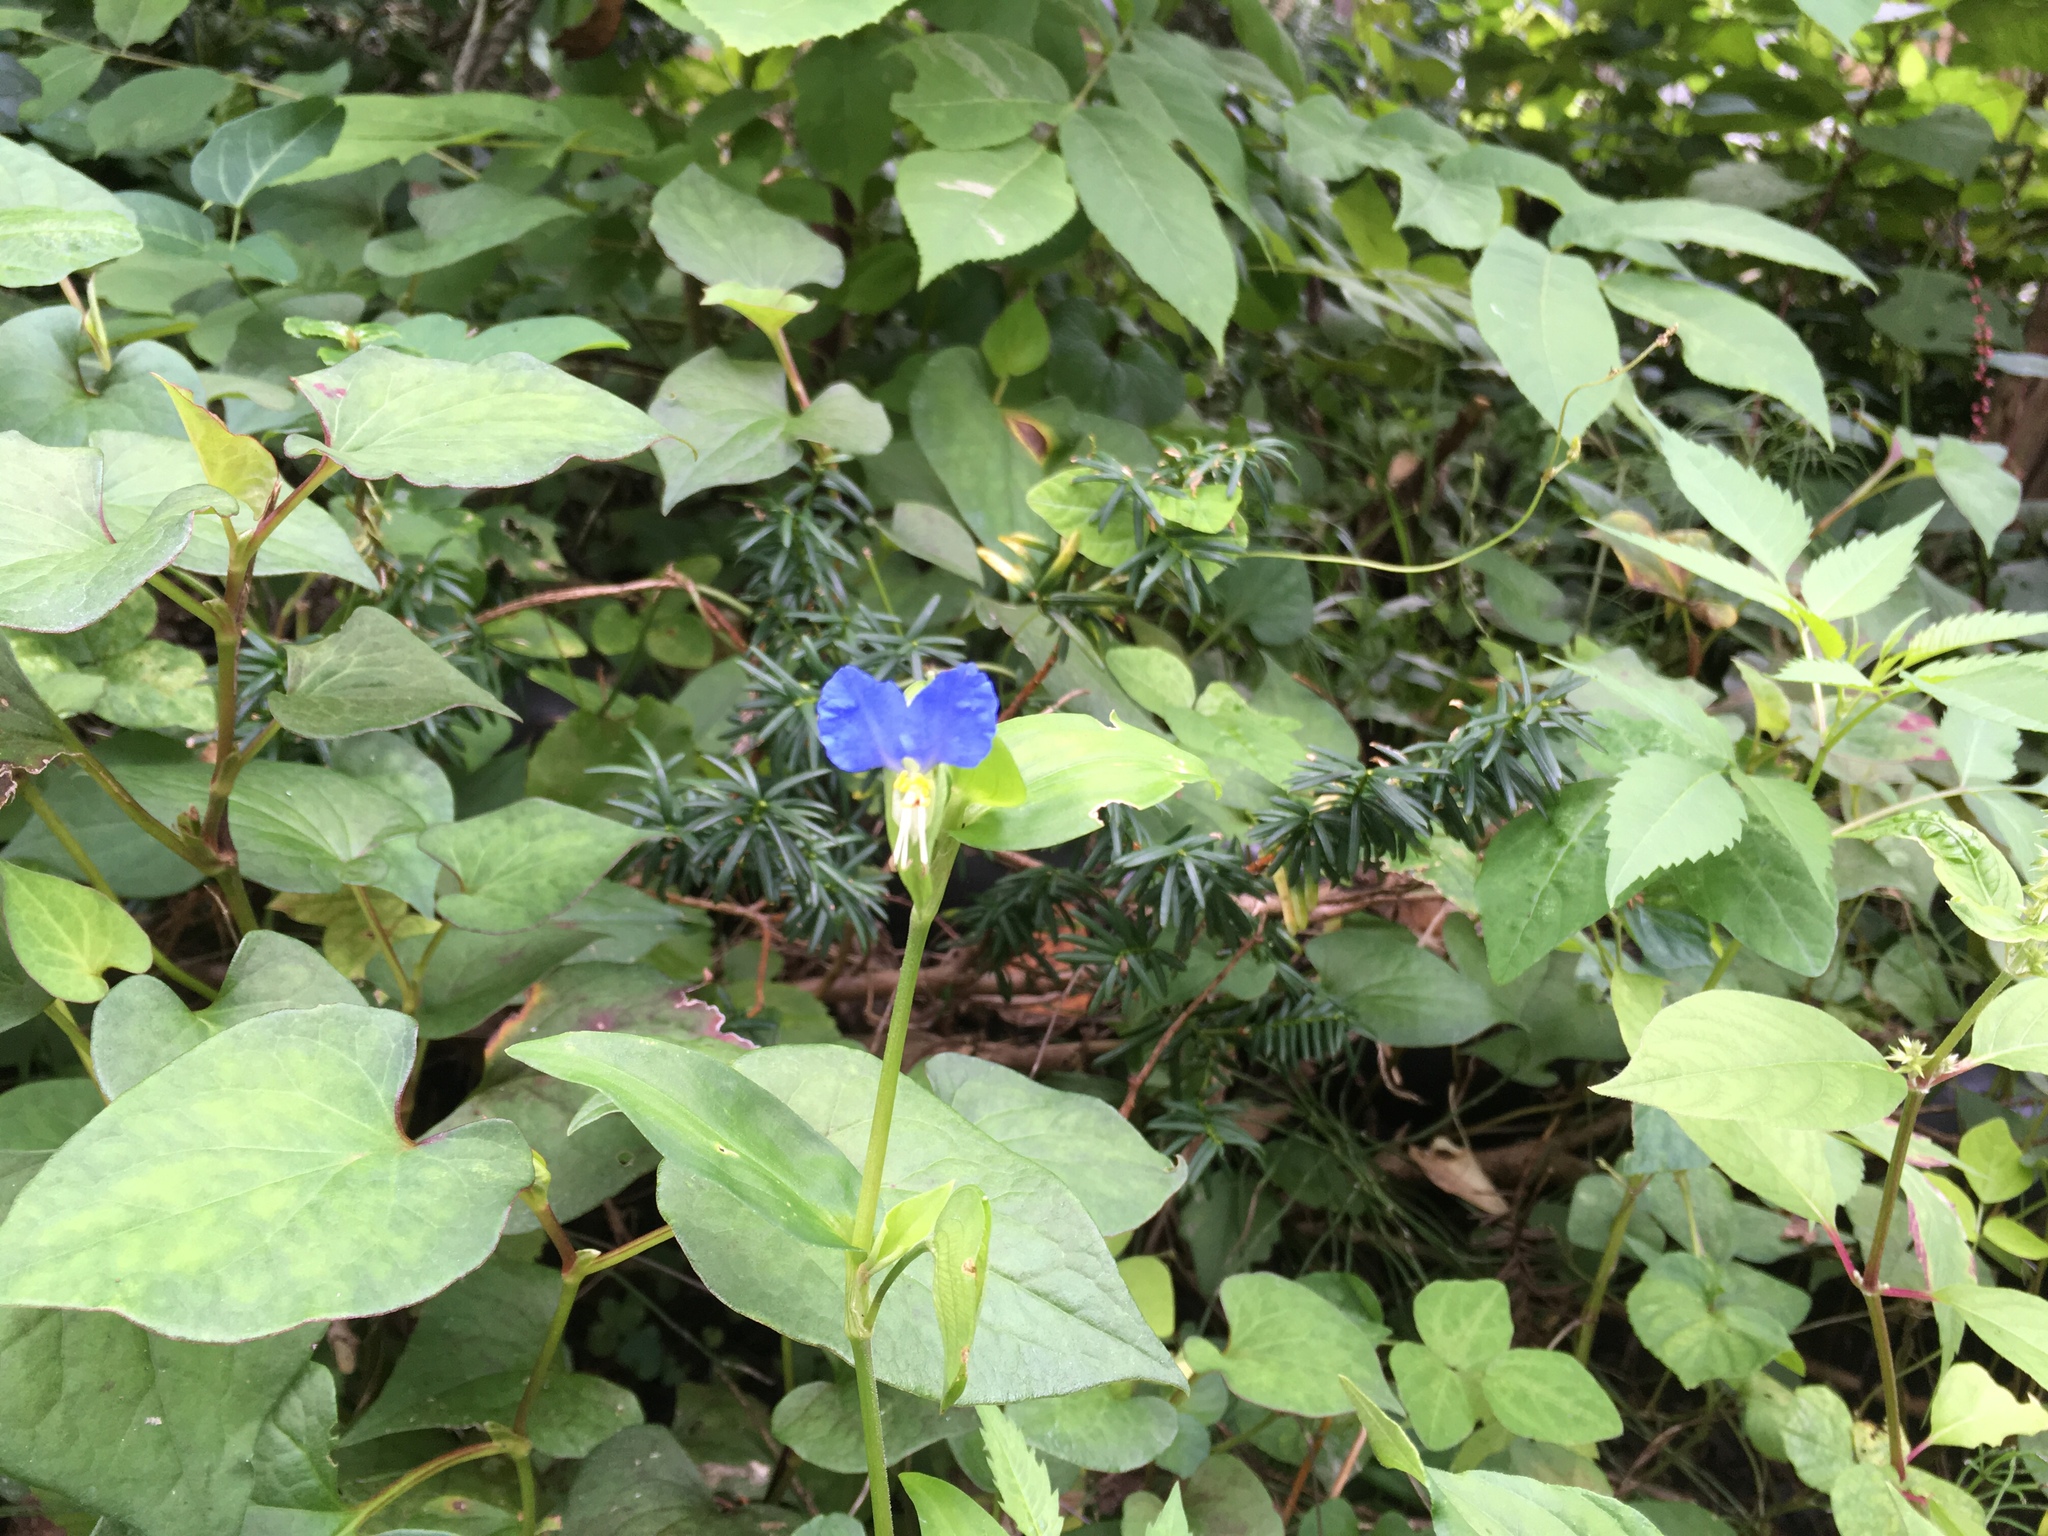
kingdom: Plantae
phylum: Tracheophyta
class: Liliopsida
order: Commelinales
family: Commelinaceae
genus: Commelina
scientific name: Commelina communis
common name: Asiatic dayflower
